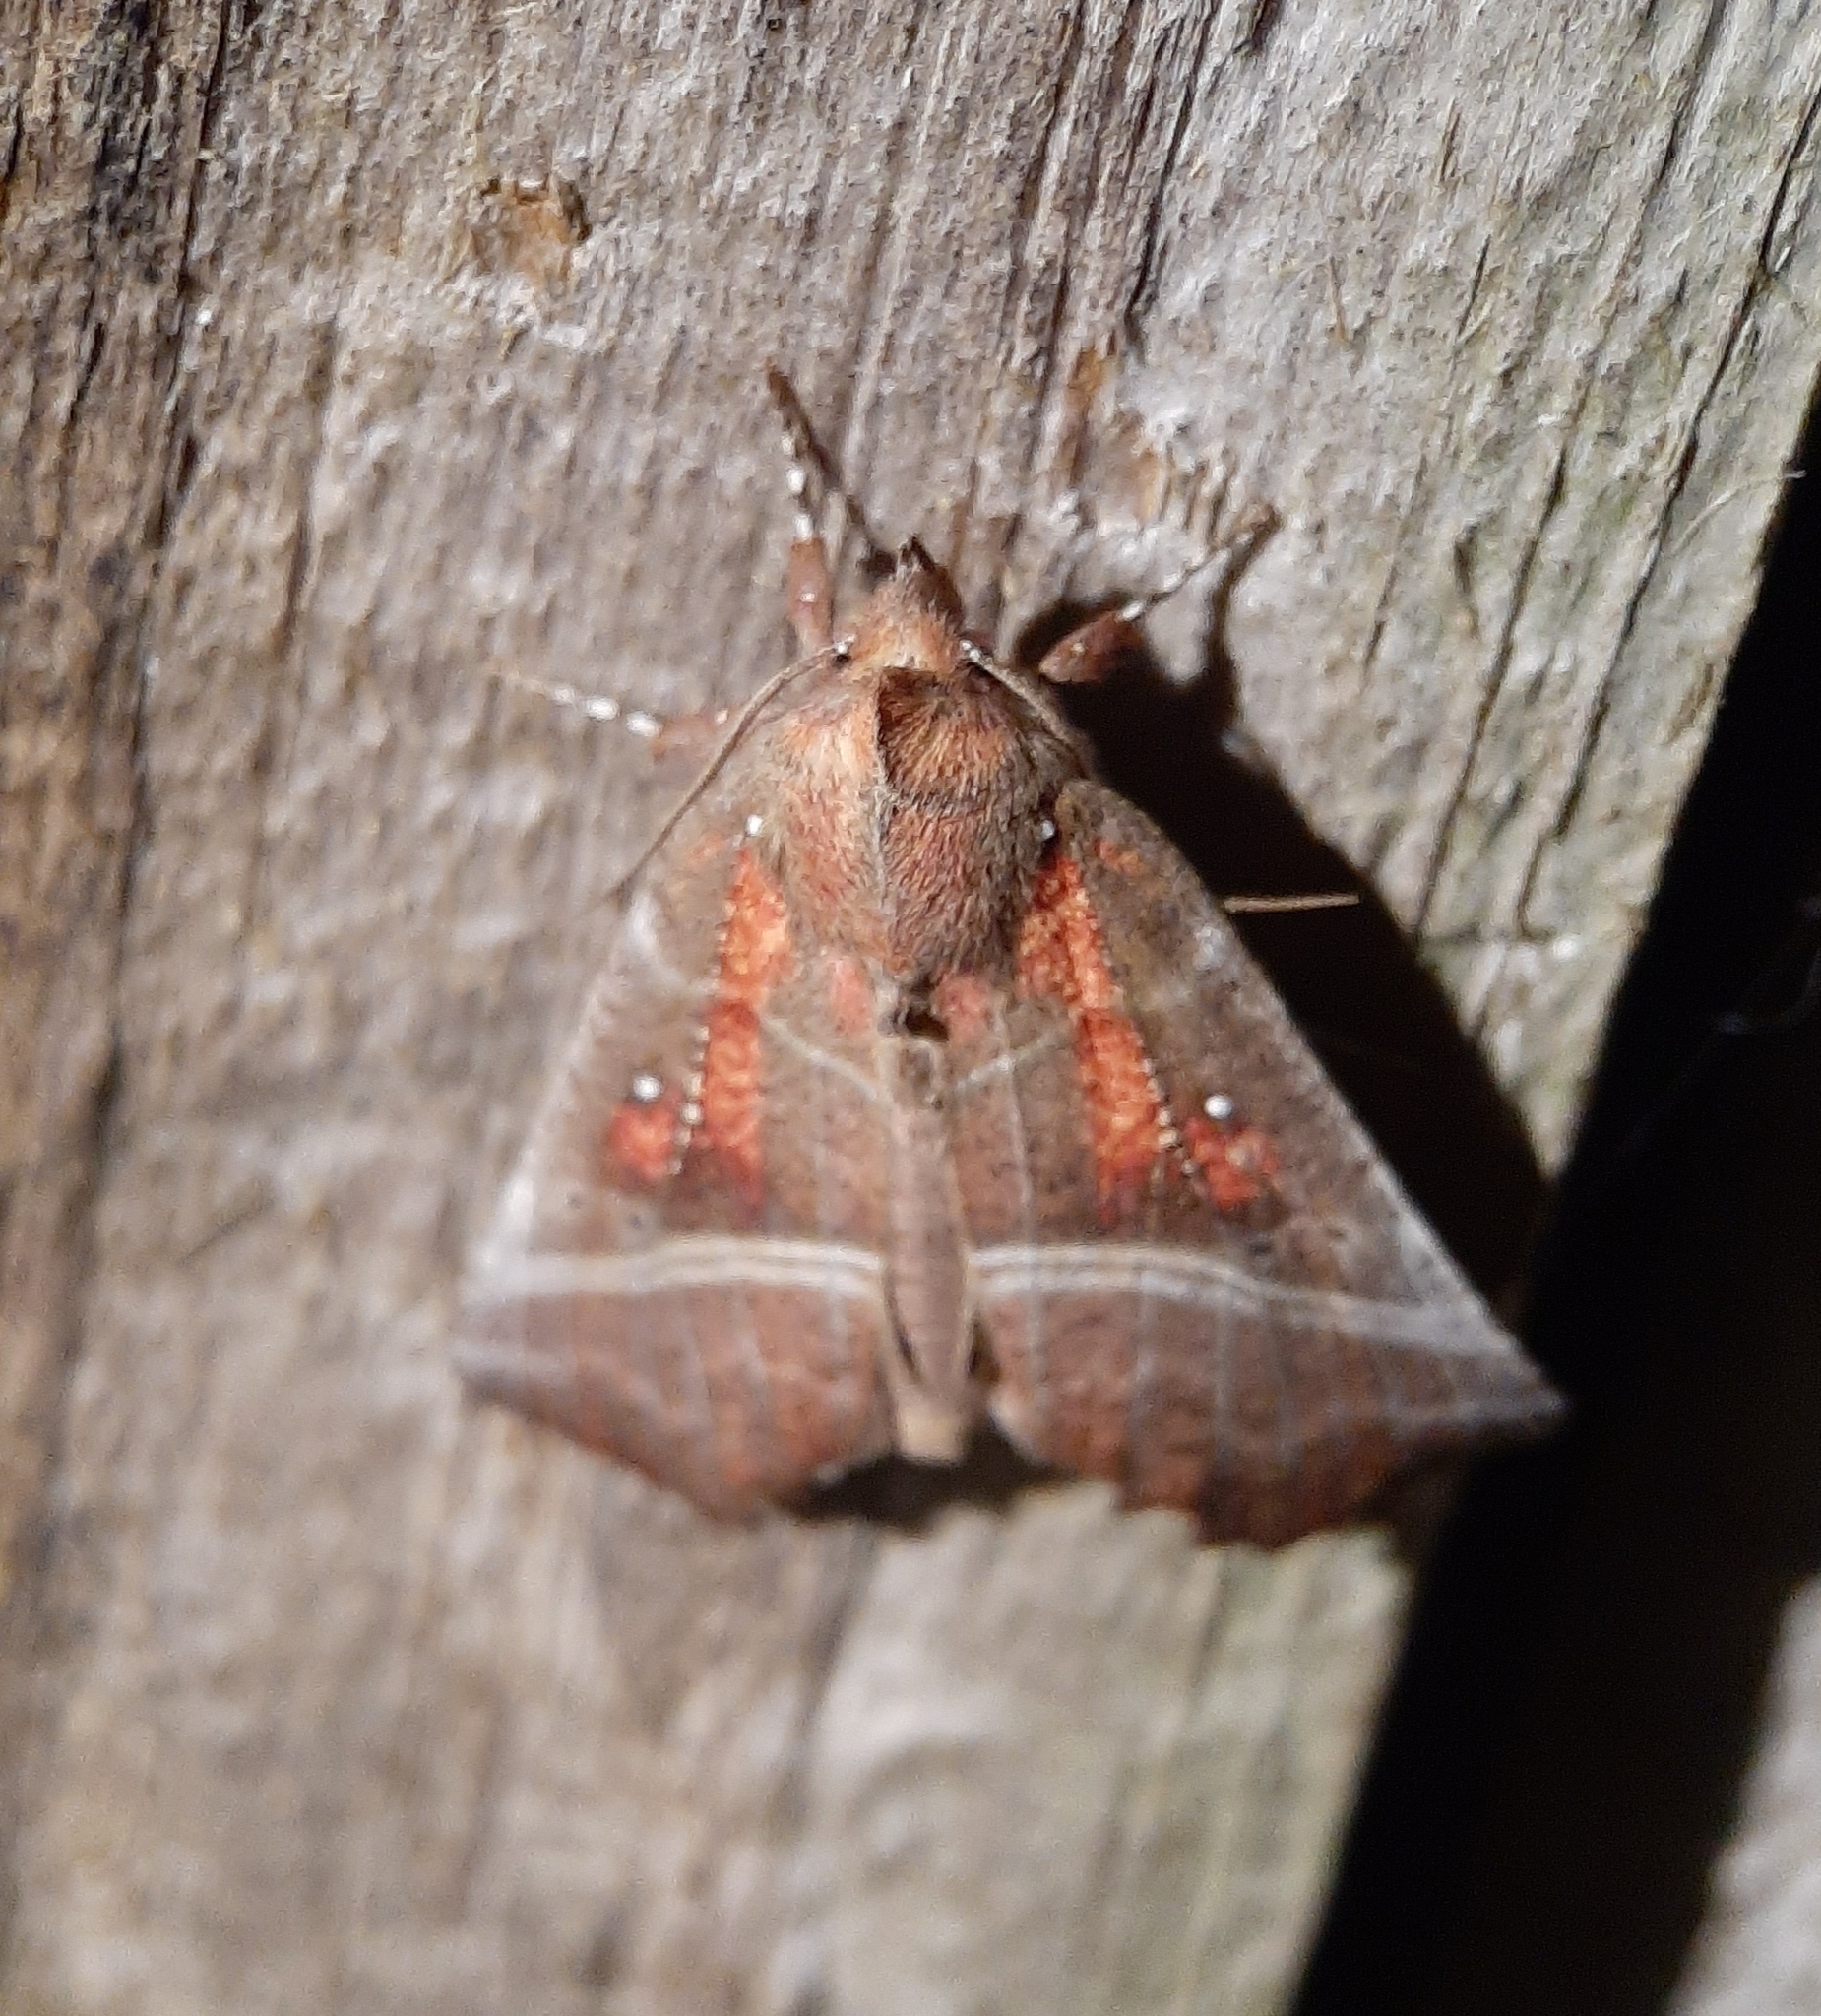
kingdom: Animalia
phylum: Arthropoda
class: Insecta
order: Lepidoptera
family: Erebidae
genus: Scoliopteryx
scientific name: Scoliopteryx libatrix
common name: Herald
